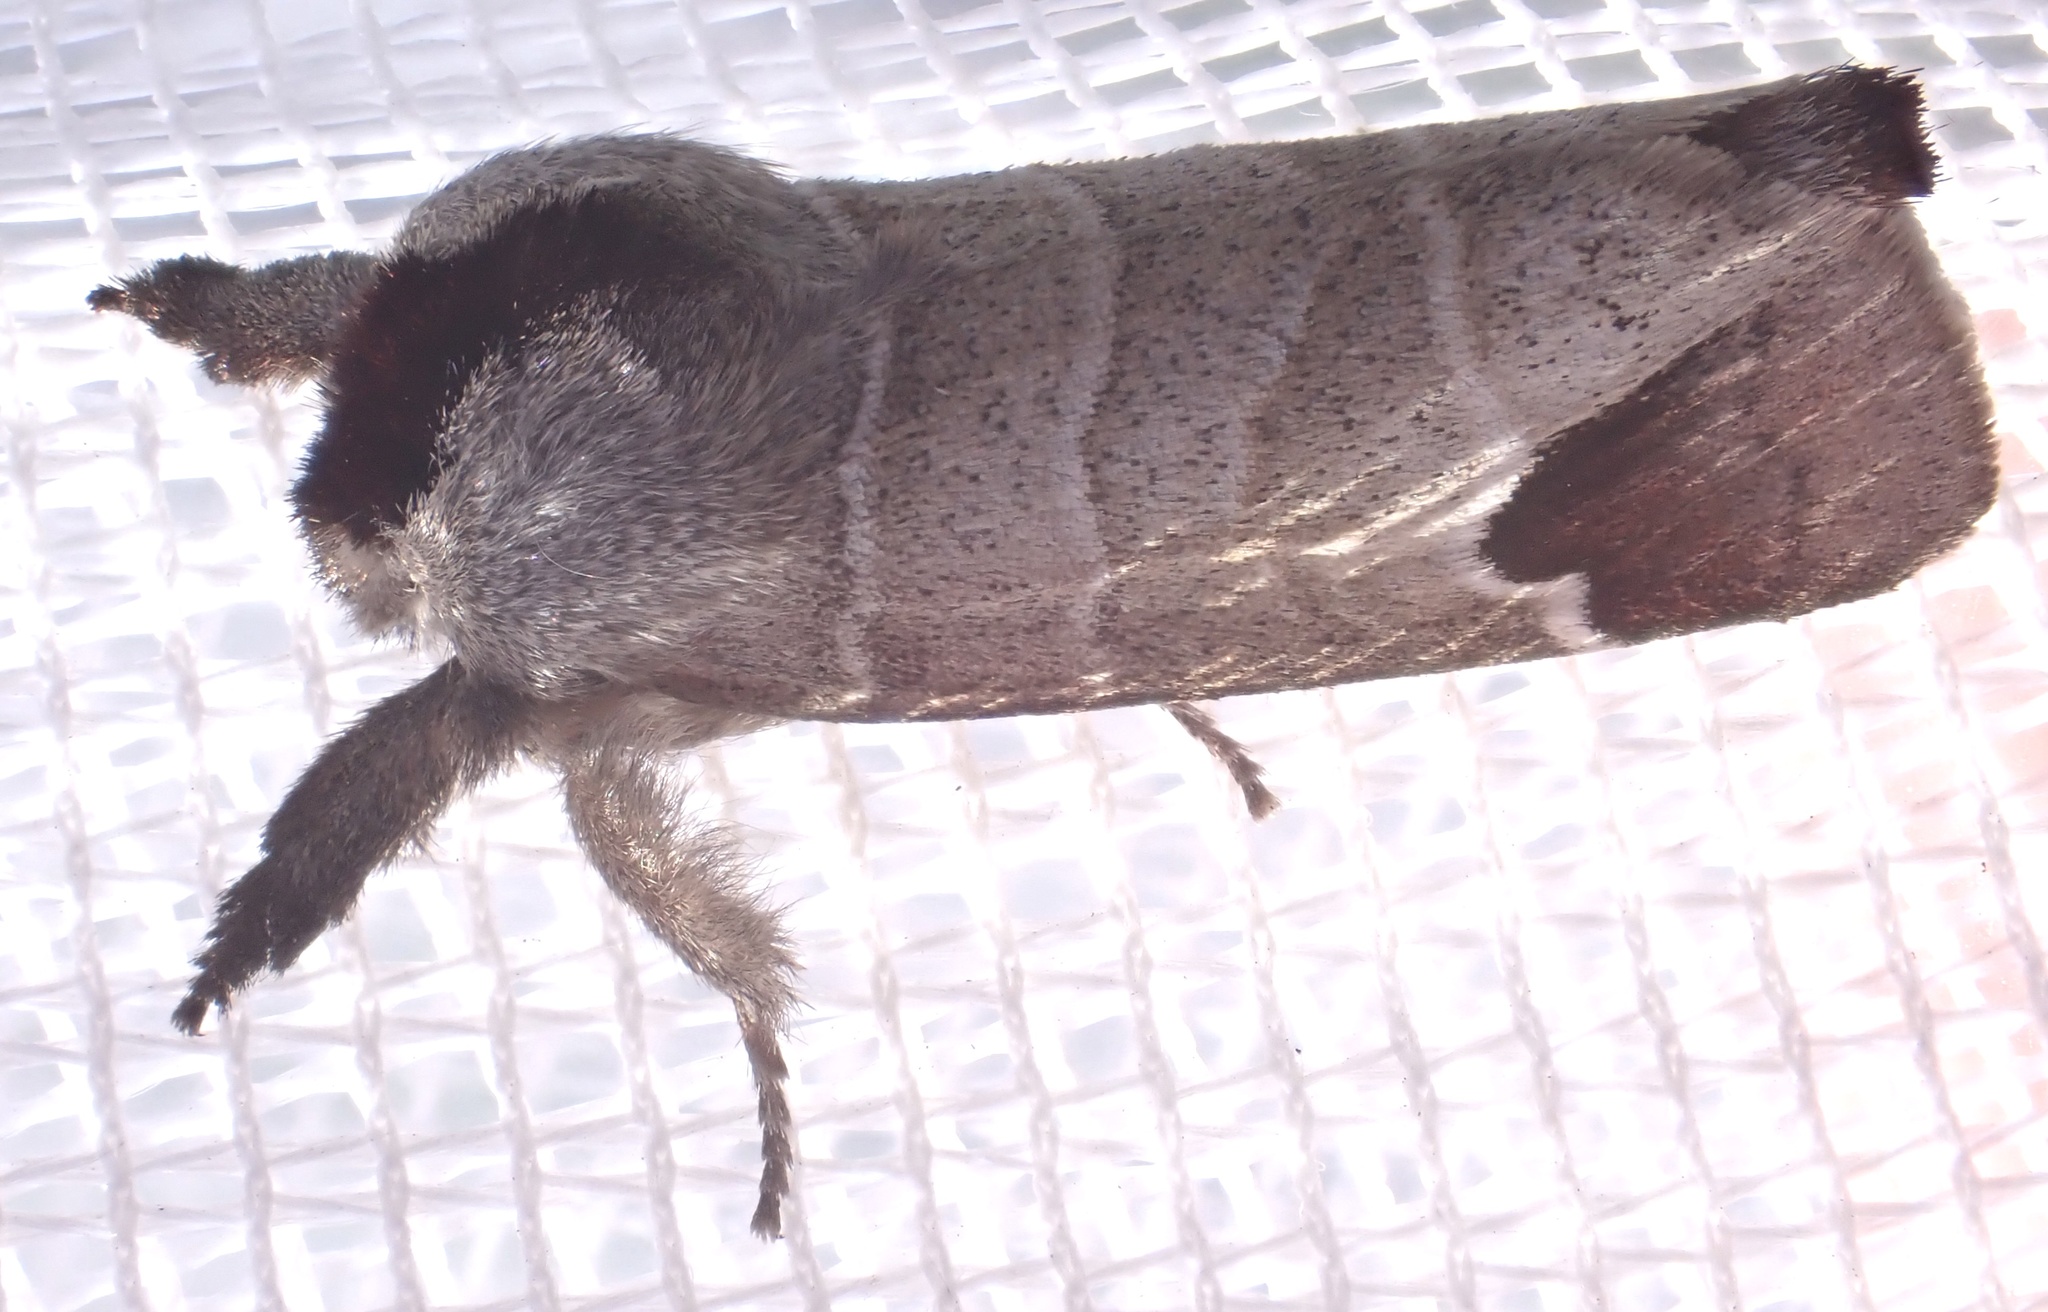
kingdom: Animalia
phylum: Arthropoda
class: Insecta
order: Lepidoptera
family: Notodontidae
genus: Clostera
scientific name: Clostera curtula
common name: Chocolate-tip
